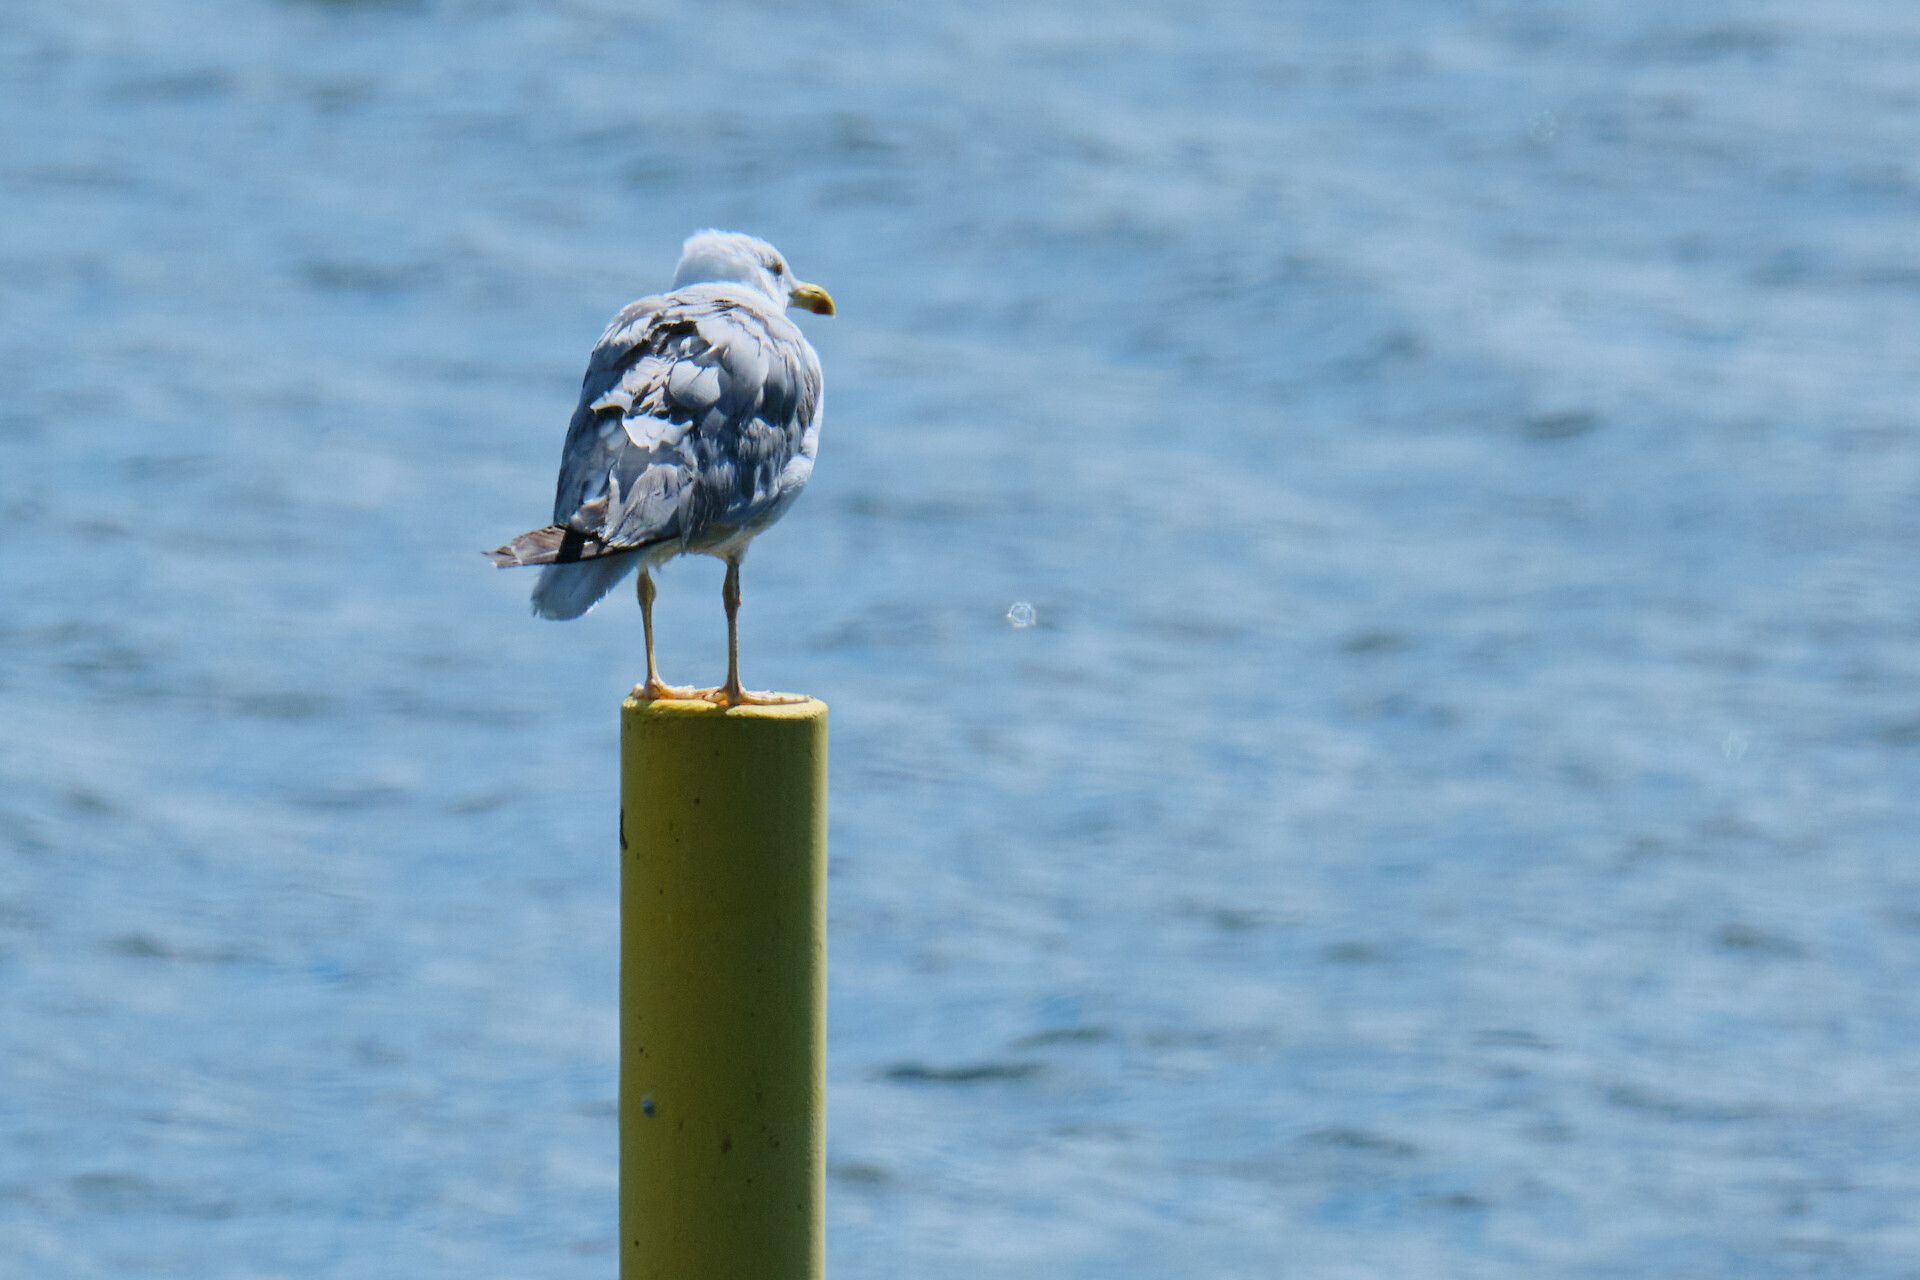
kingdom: Animalia
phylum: Chordata
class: Aves
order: Charadriiformes
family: Laridae
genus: Larus
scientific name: Larus michahellis
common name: Yellow-legged gull
